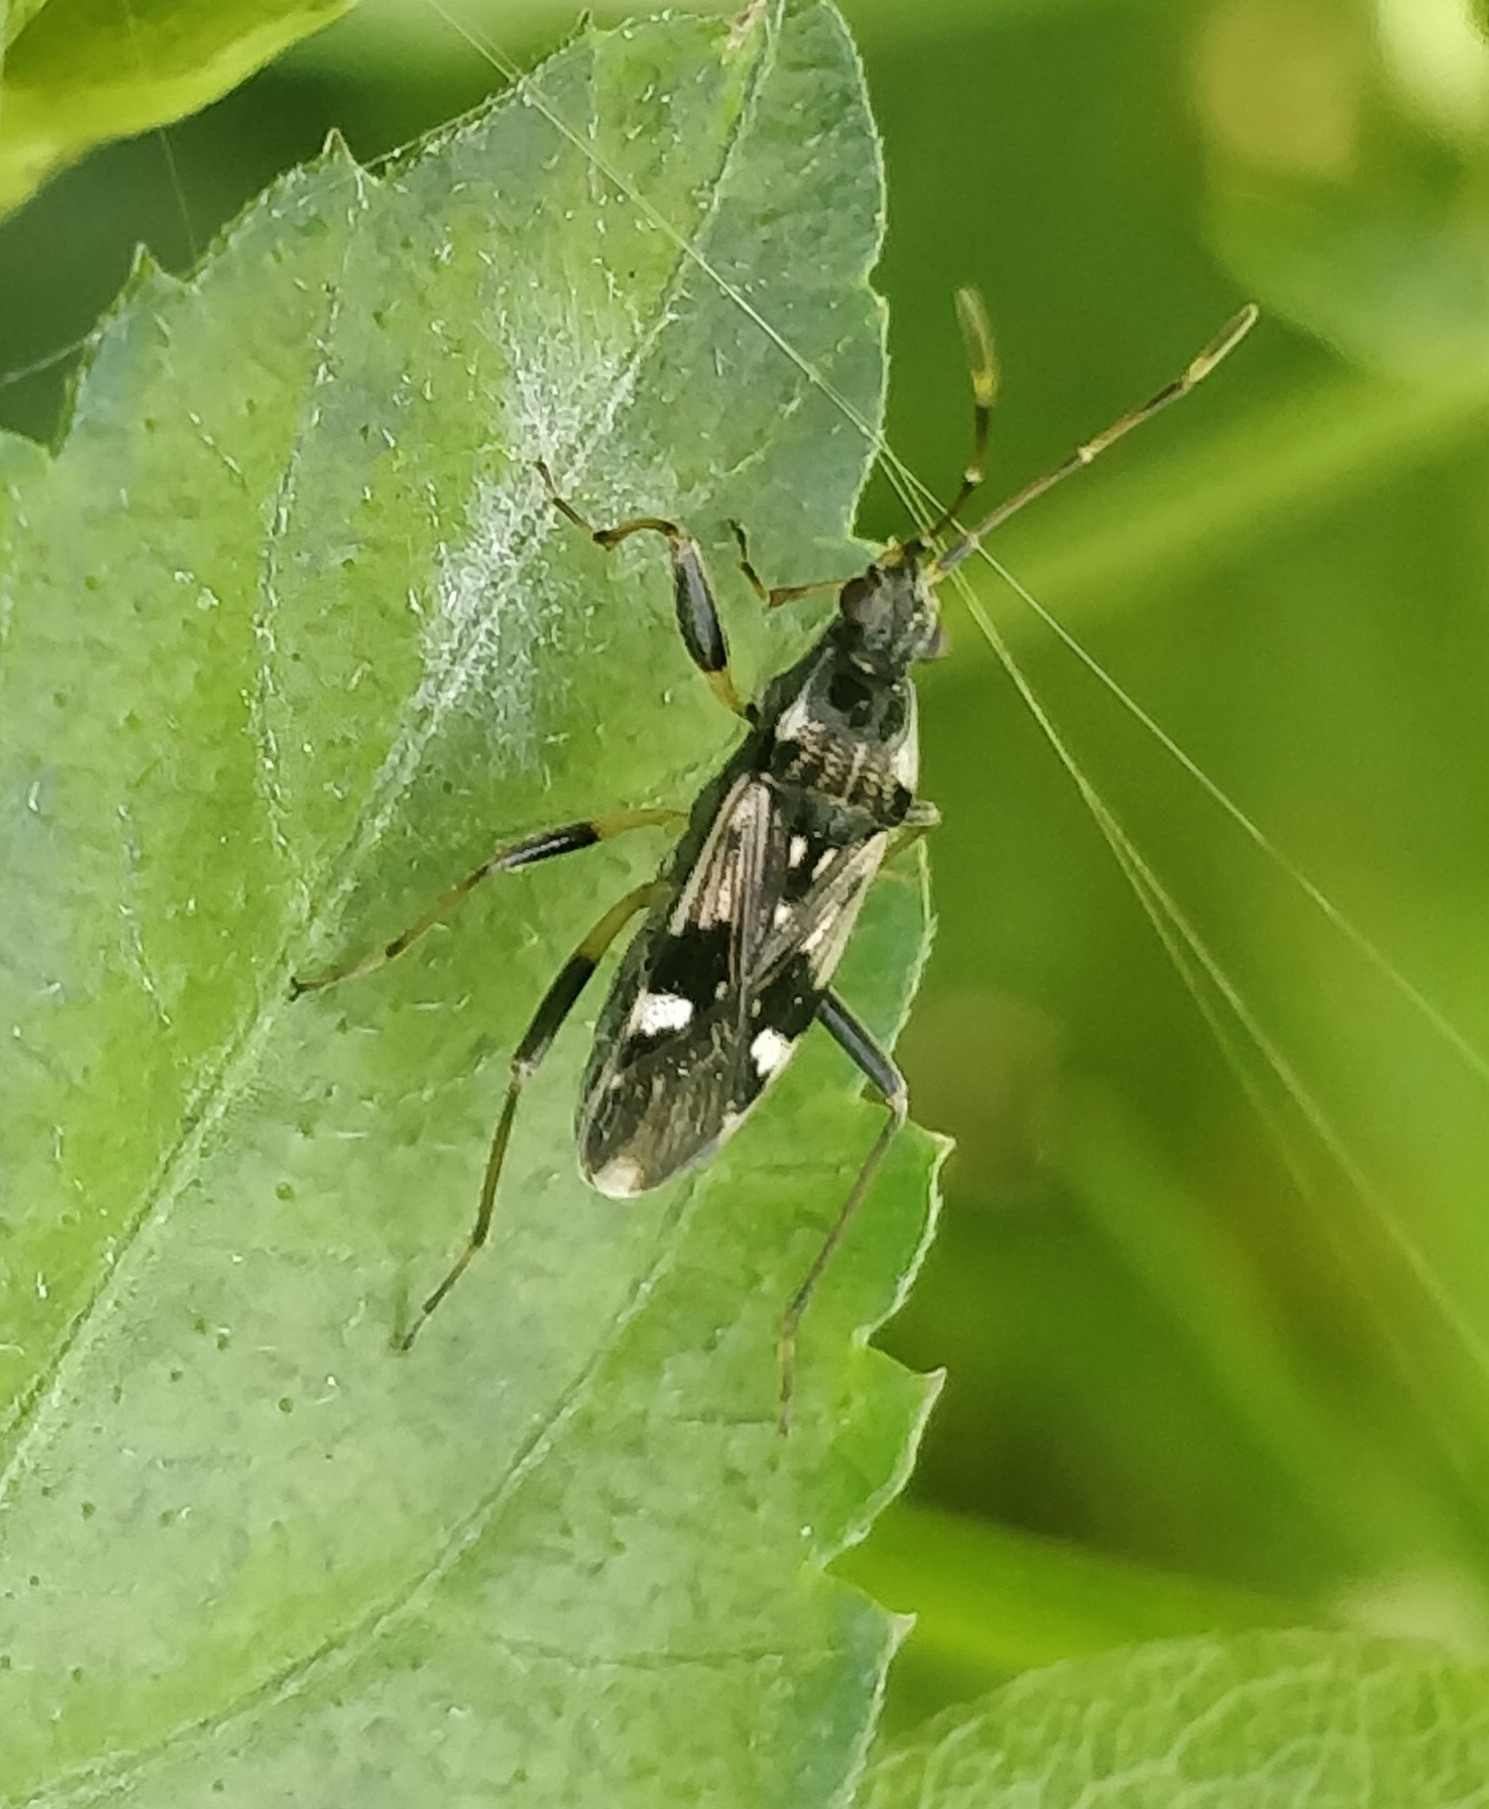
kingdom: Animalia
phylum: Arthropoda
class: Insecta
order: Hemiptera
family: Rhyparochromidae
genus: Beosus
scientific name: Beosus maritimus
